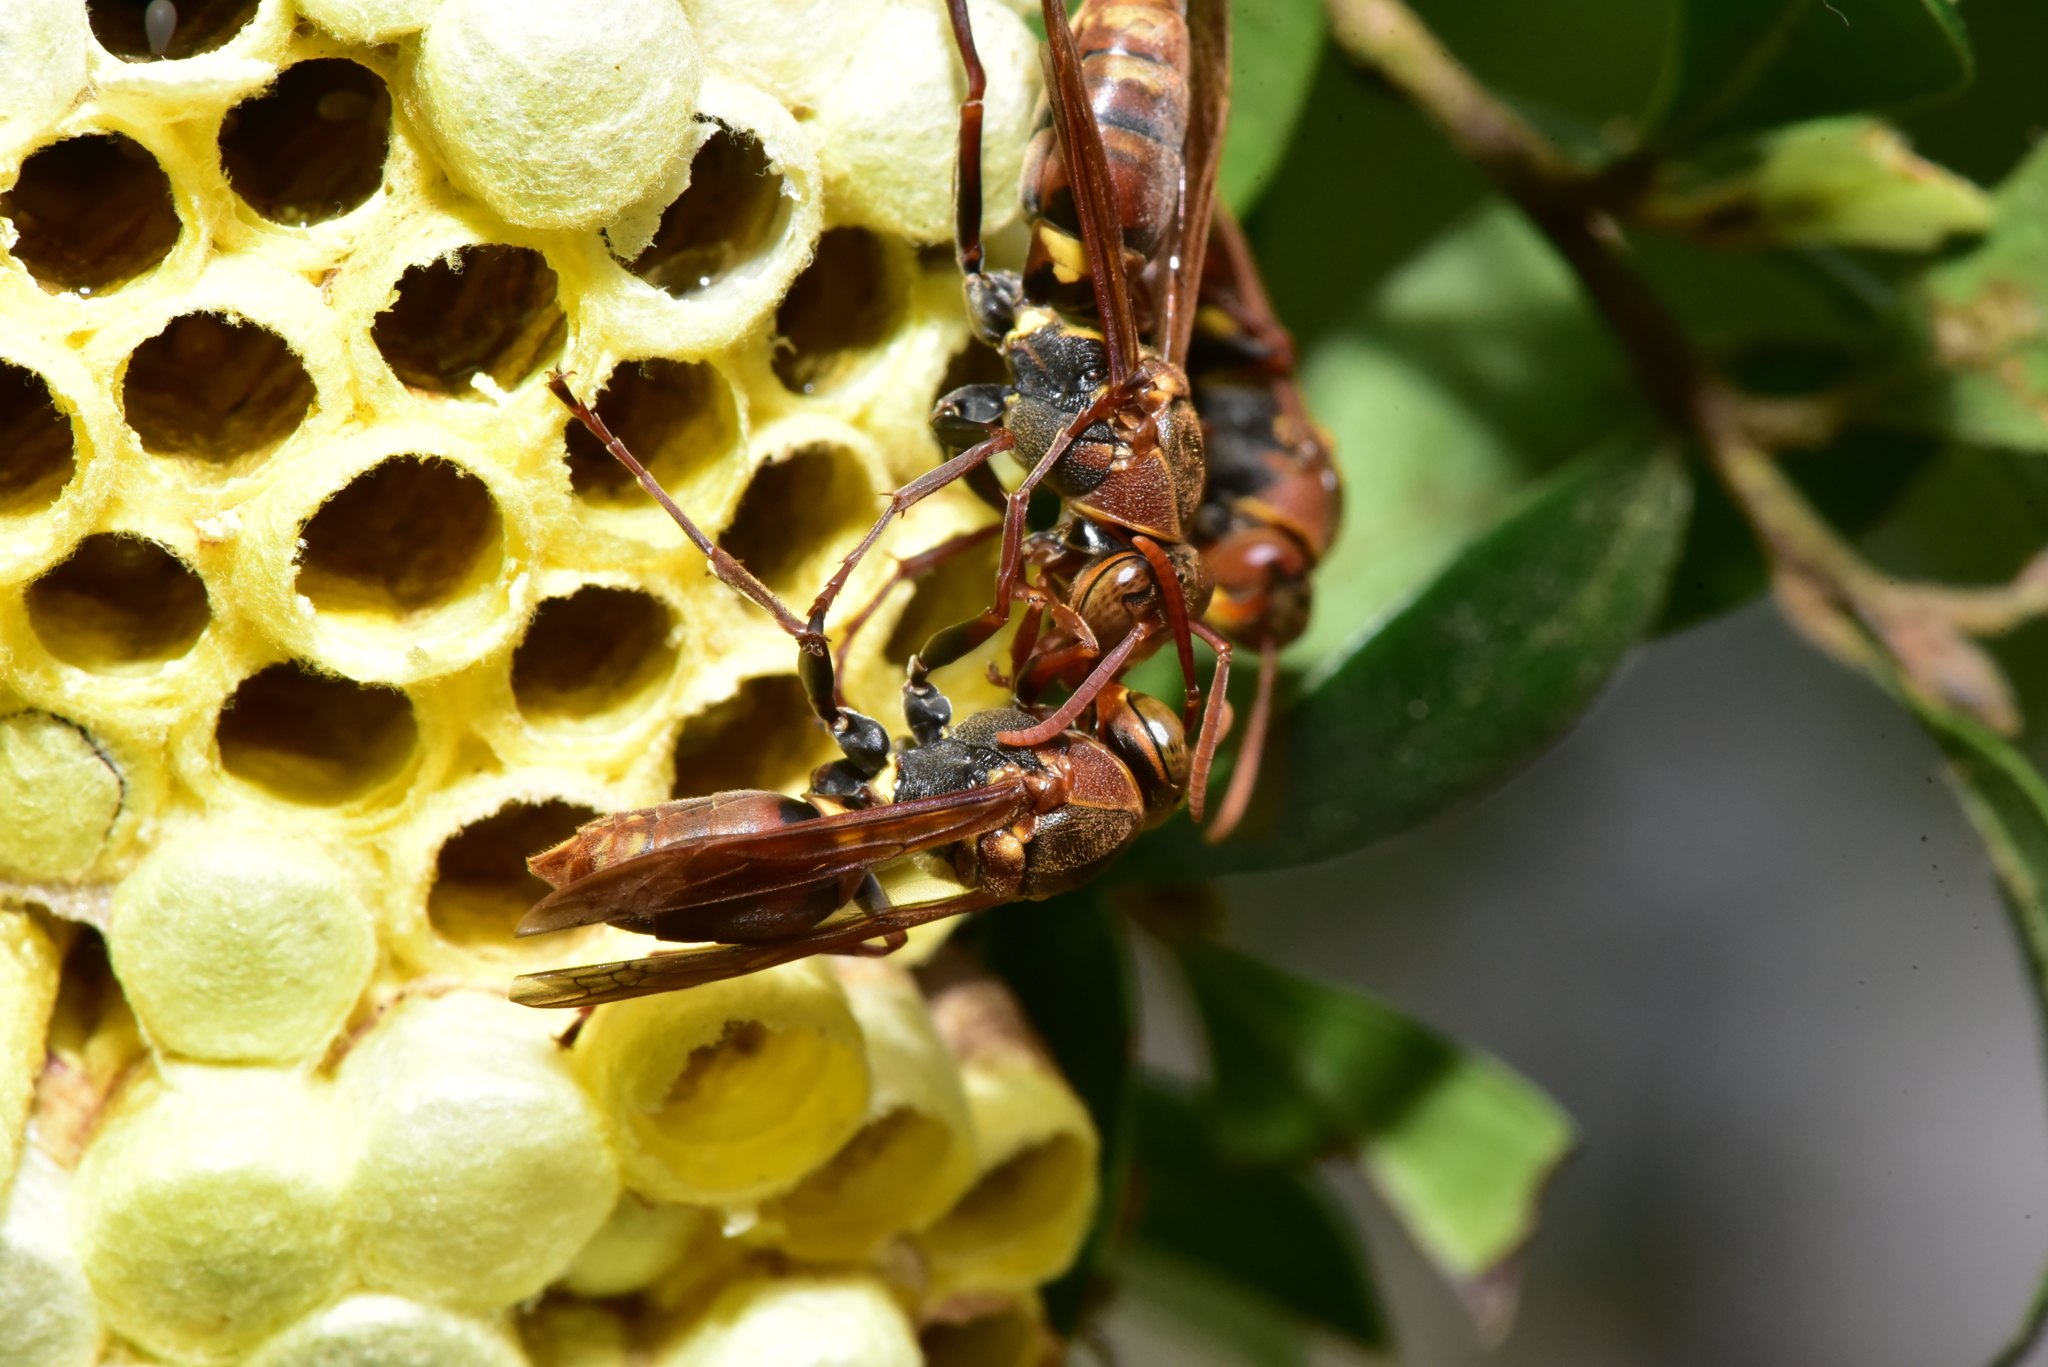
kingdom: Animalia
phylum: Arthropoda
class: Insecta
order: Hymenoptera
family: Eumenidae
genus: Polistes
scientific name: Polistes takasagonus
